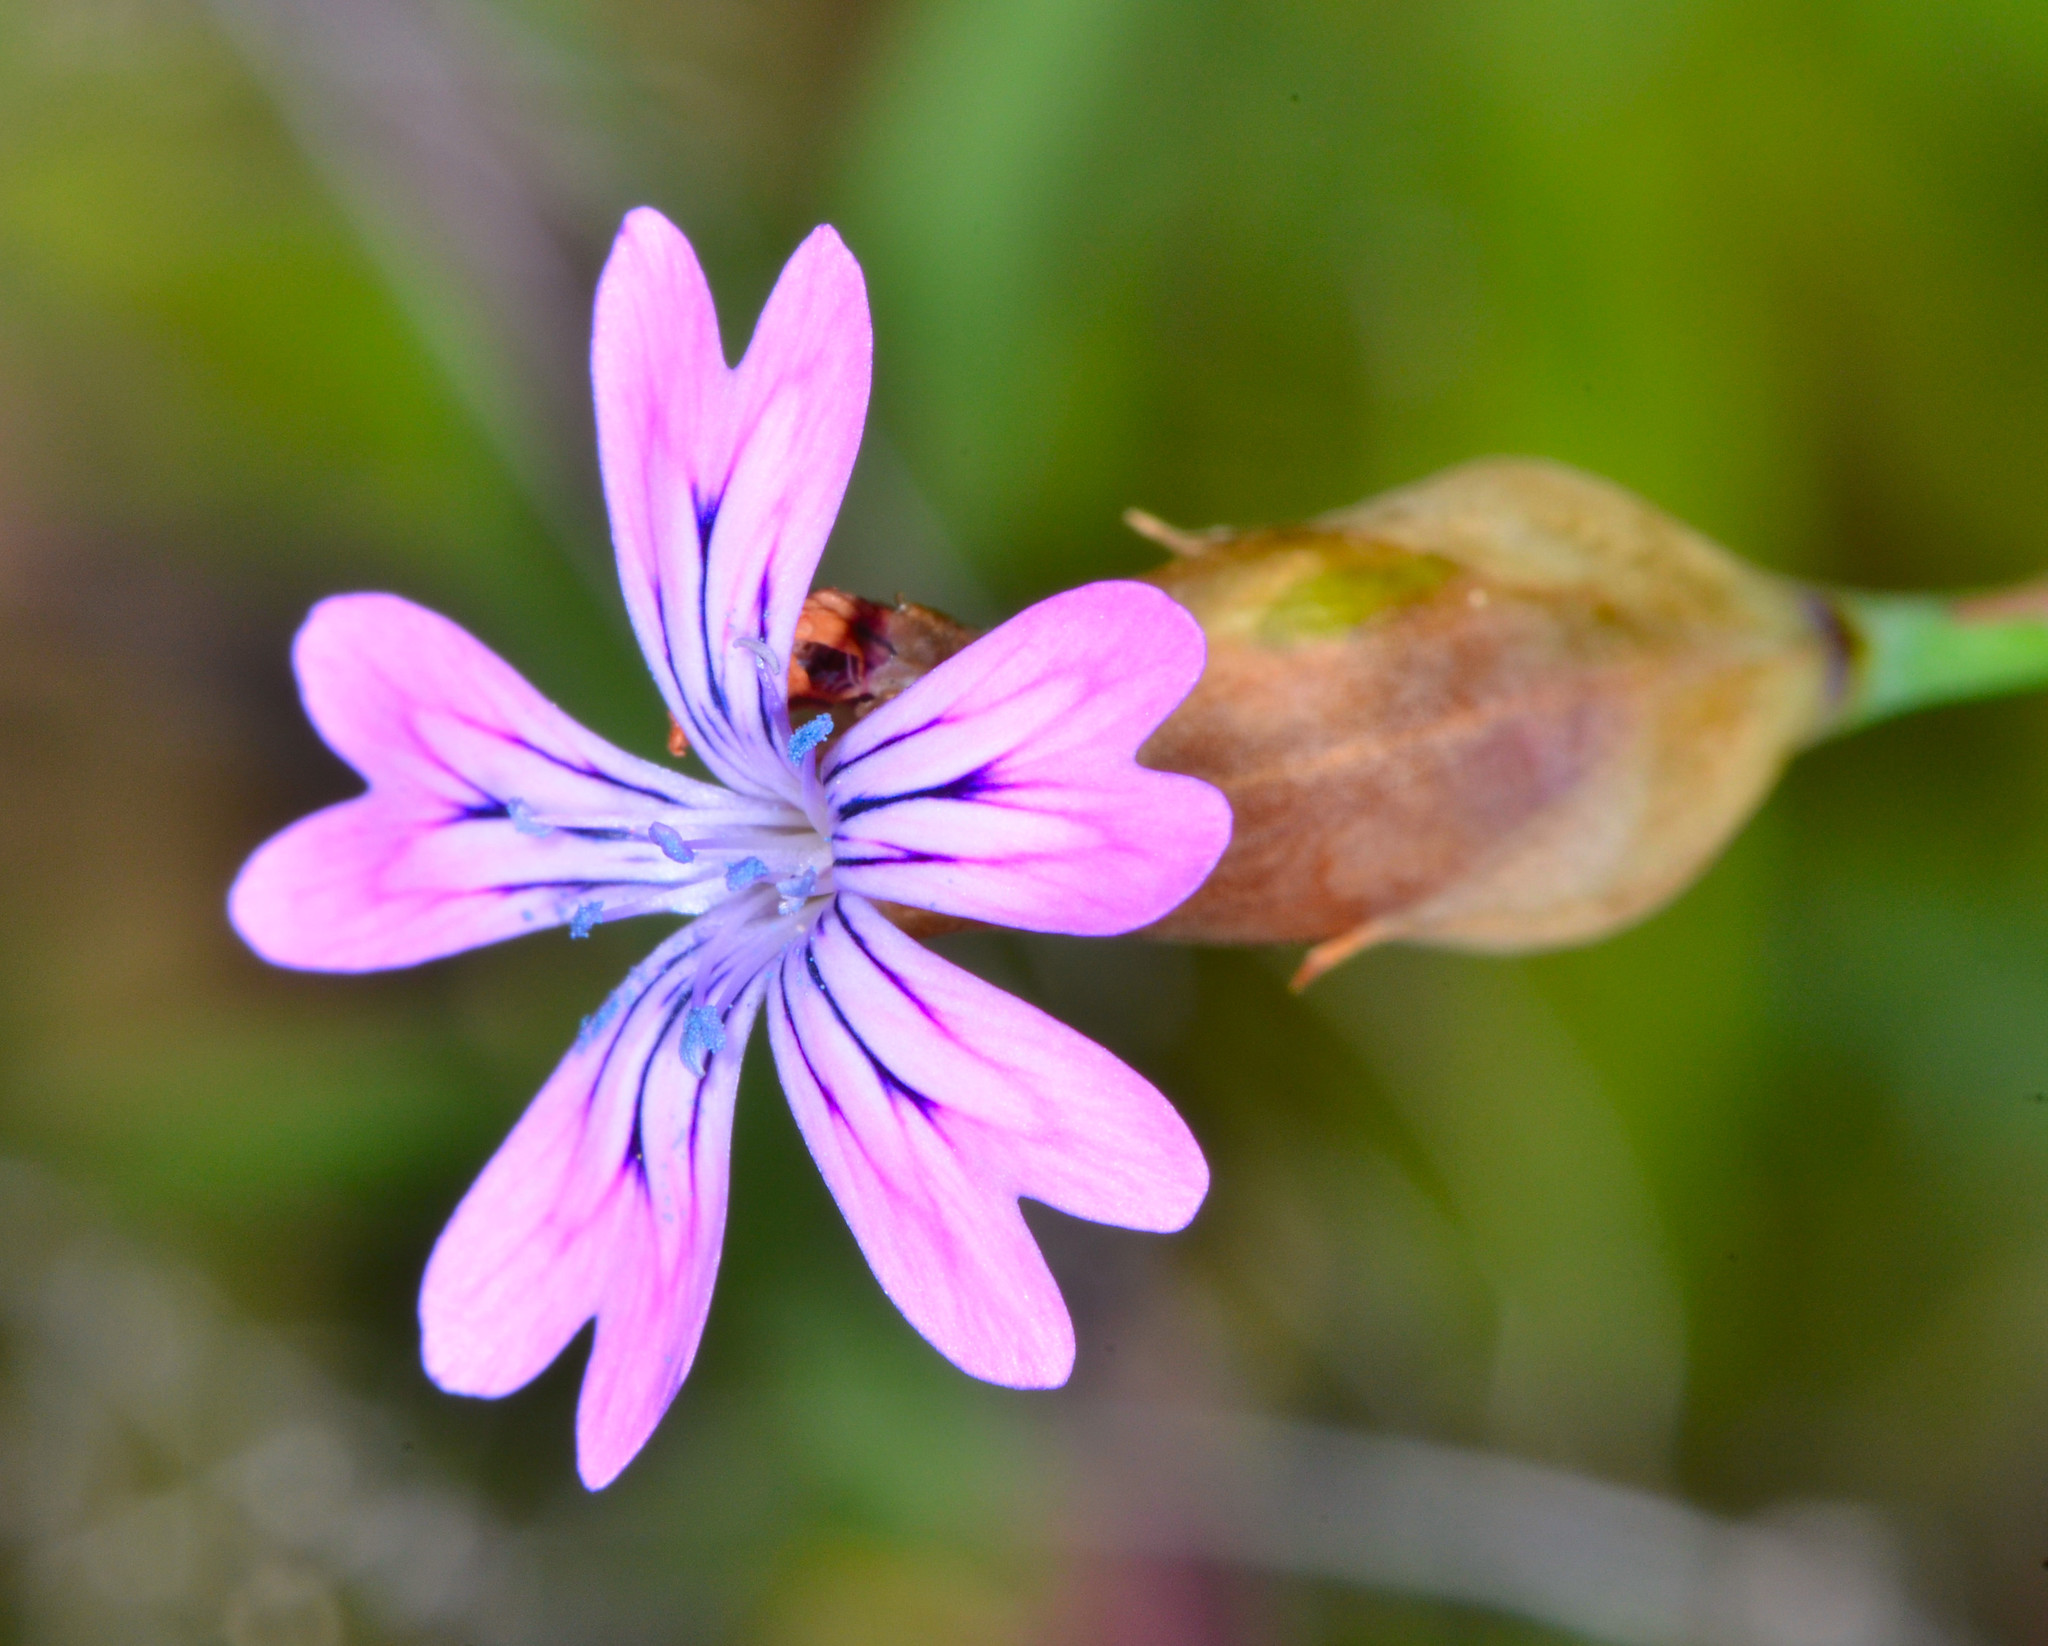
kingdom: Plantae
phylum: Tracheophyta
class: Magnoliopsida
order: Caryophyllales
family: Caryophyllaceae
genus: Petrorhagia
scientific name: Petrorhagia dubia
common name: Hairypink
